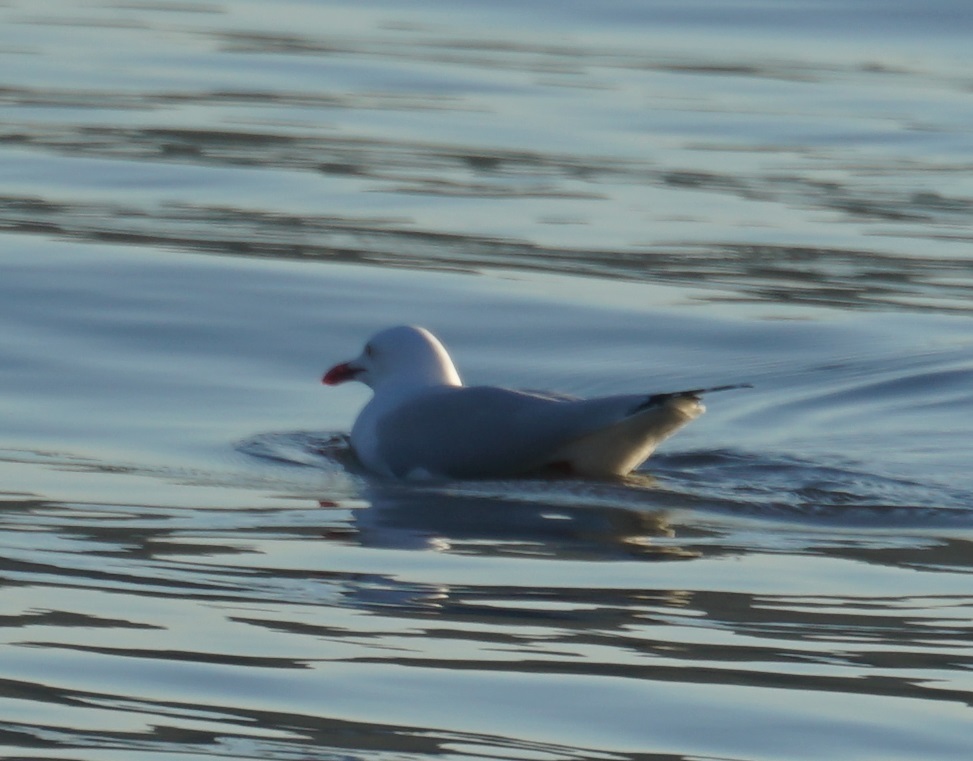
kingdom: Animalia
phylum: Chordata
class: Aves
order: Charadriiformes
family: Laridae
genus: Chroicocephalus
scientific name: Chroicocephalus novaehollandiae
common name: Silver gull
